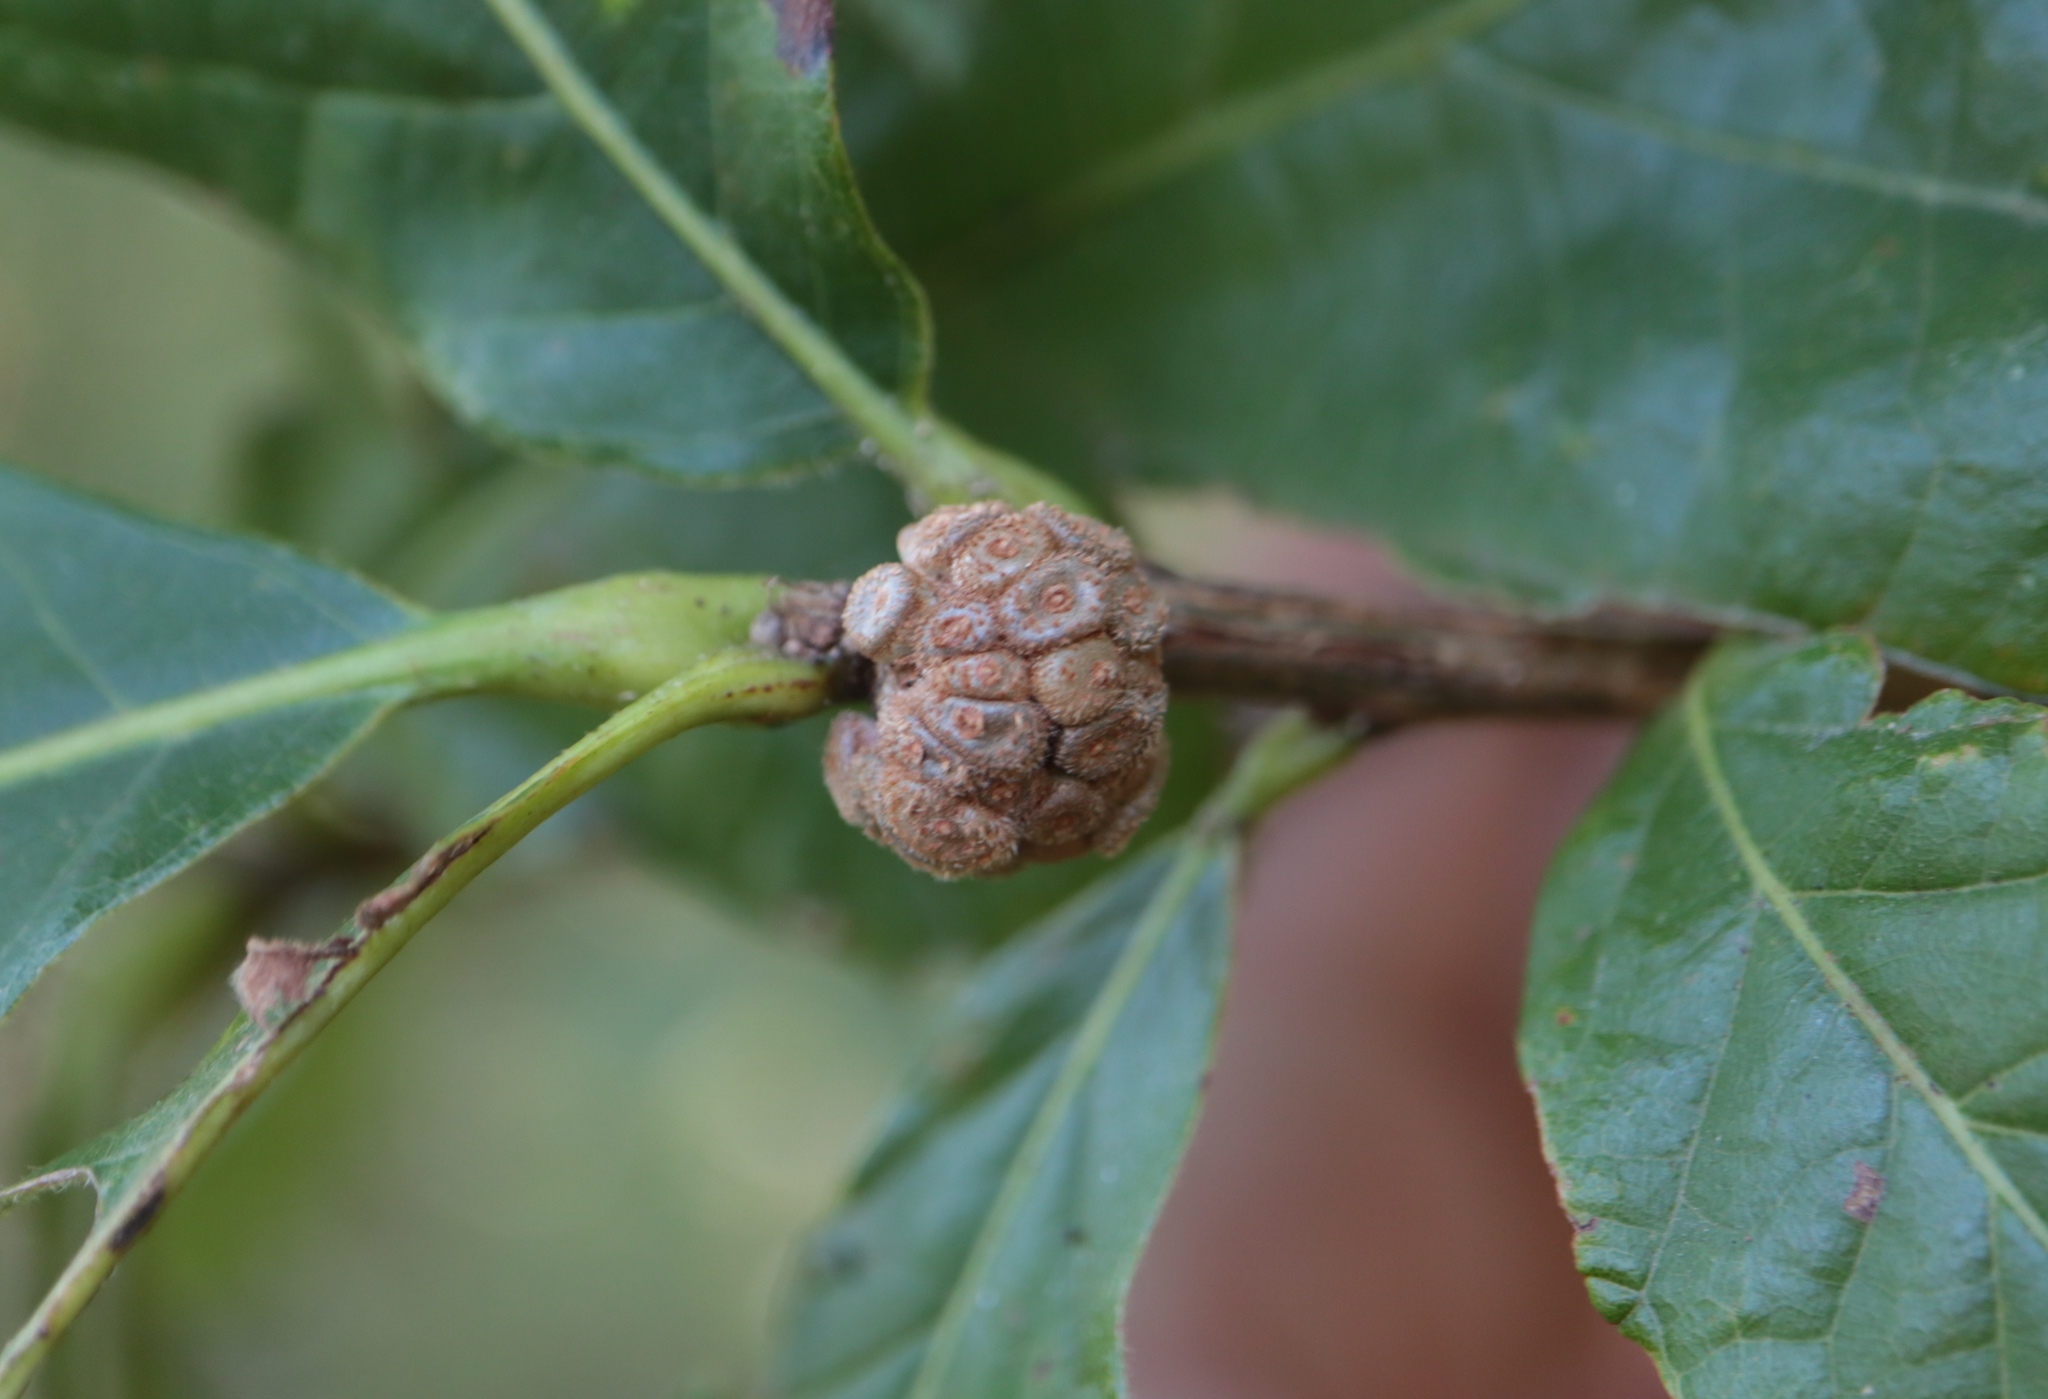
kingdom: Animalia
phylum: Arthropoda
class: Insecta
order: Hymenoptera
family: Cynipidae
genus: Andricus
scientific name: Andricus
